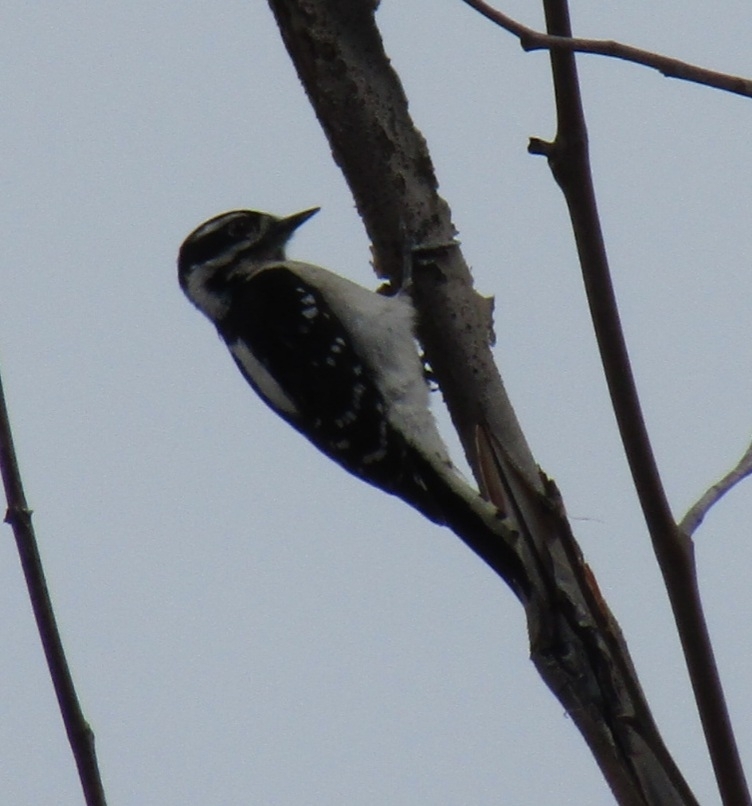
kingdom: Animalia
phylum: Chordata
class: Aves
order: Piciformes
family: Picidae
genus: Dryobates
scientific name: Dryobates pubescens
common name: Downy woodpecker
